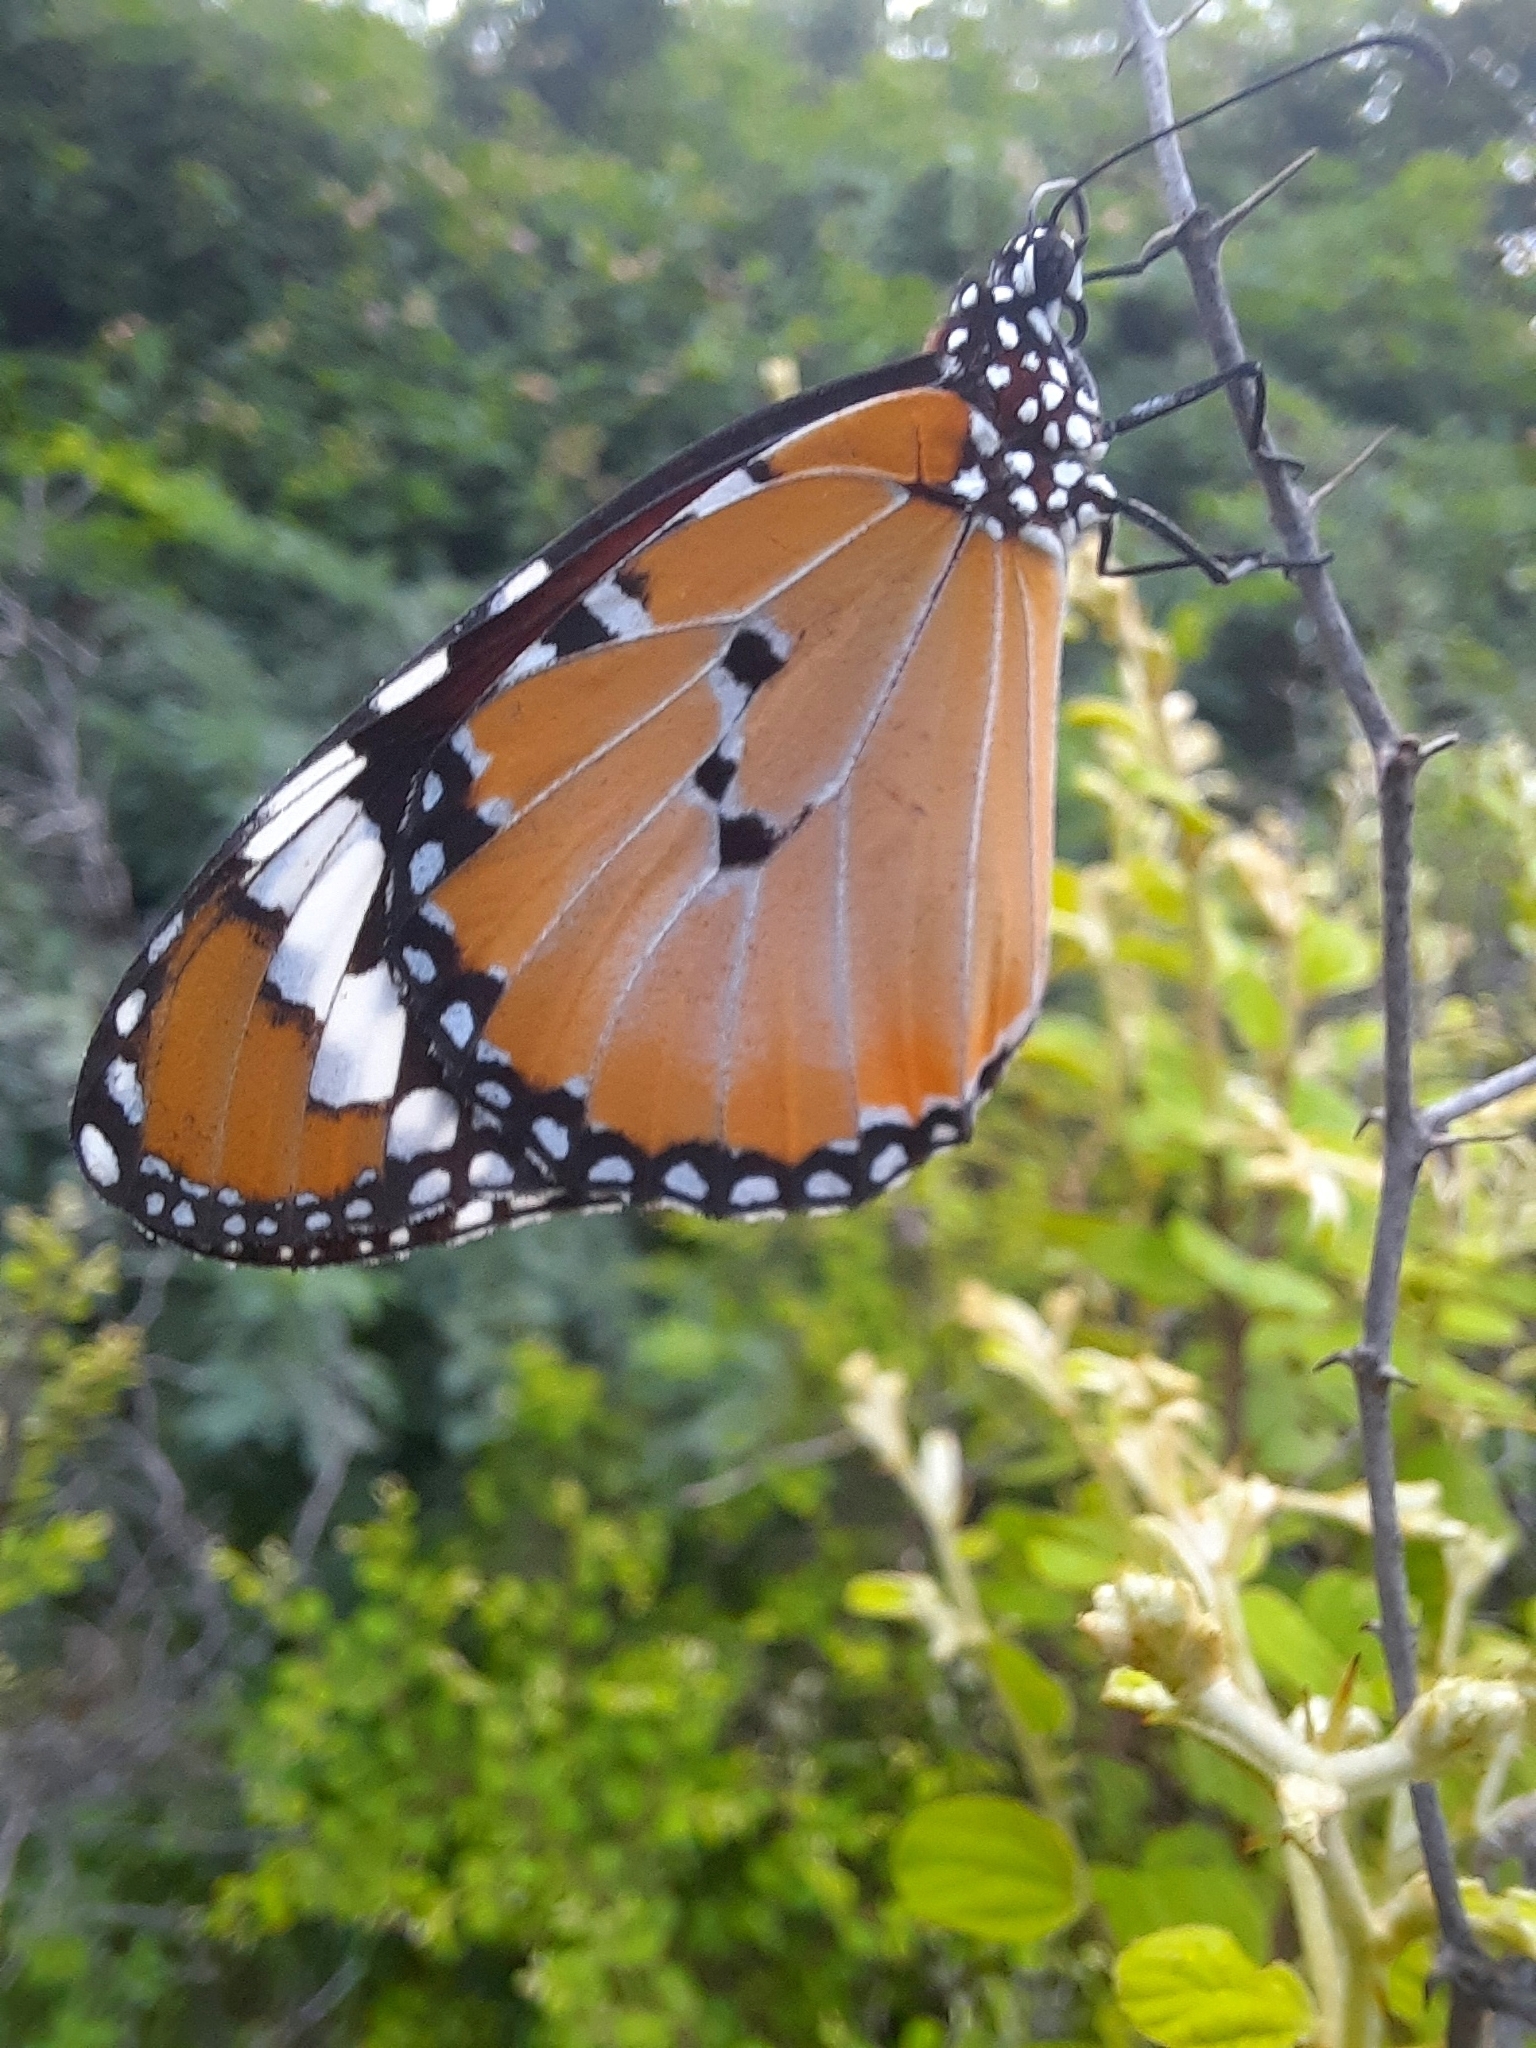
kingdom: Animalia
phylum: Arthropoda
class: Insecta
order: Lepidoptera
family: Nymphalidae
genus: Danaus
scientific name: Danaus chrysippus
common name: Plain tiger
